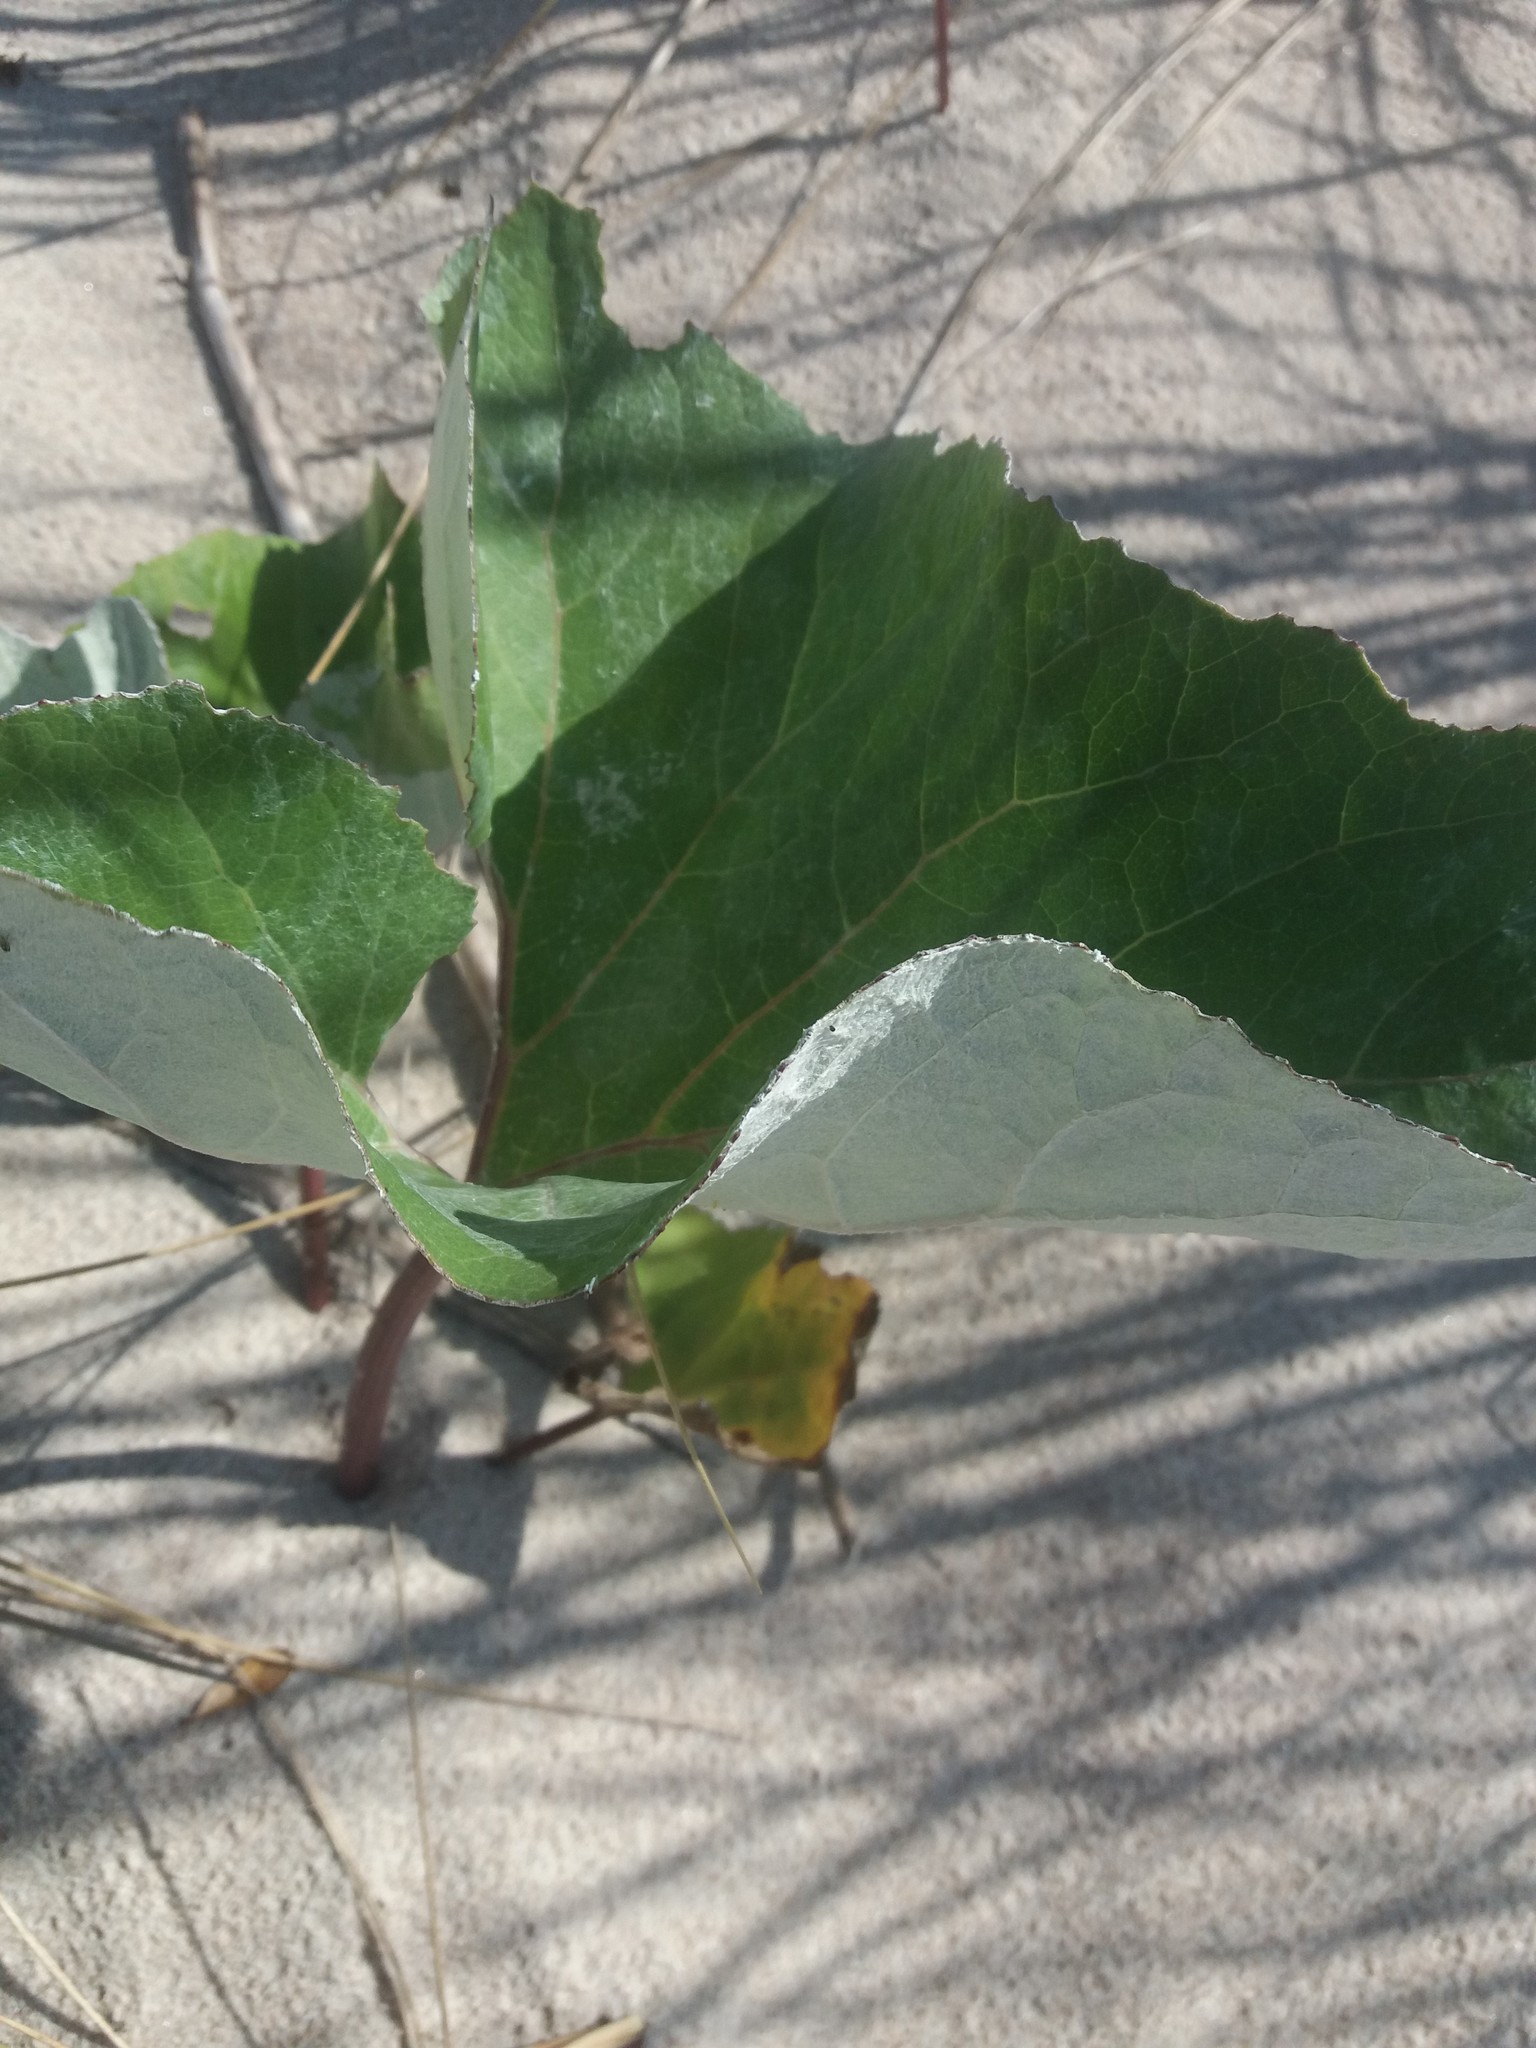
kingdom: Plantae
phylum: Tracheophyta
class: Magnoliopsida
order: Asterales
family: Asteraceae
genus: Petasites
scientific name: Petasites spurius
